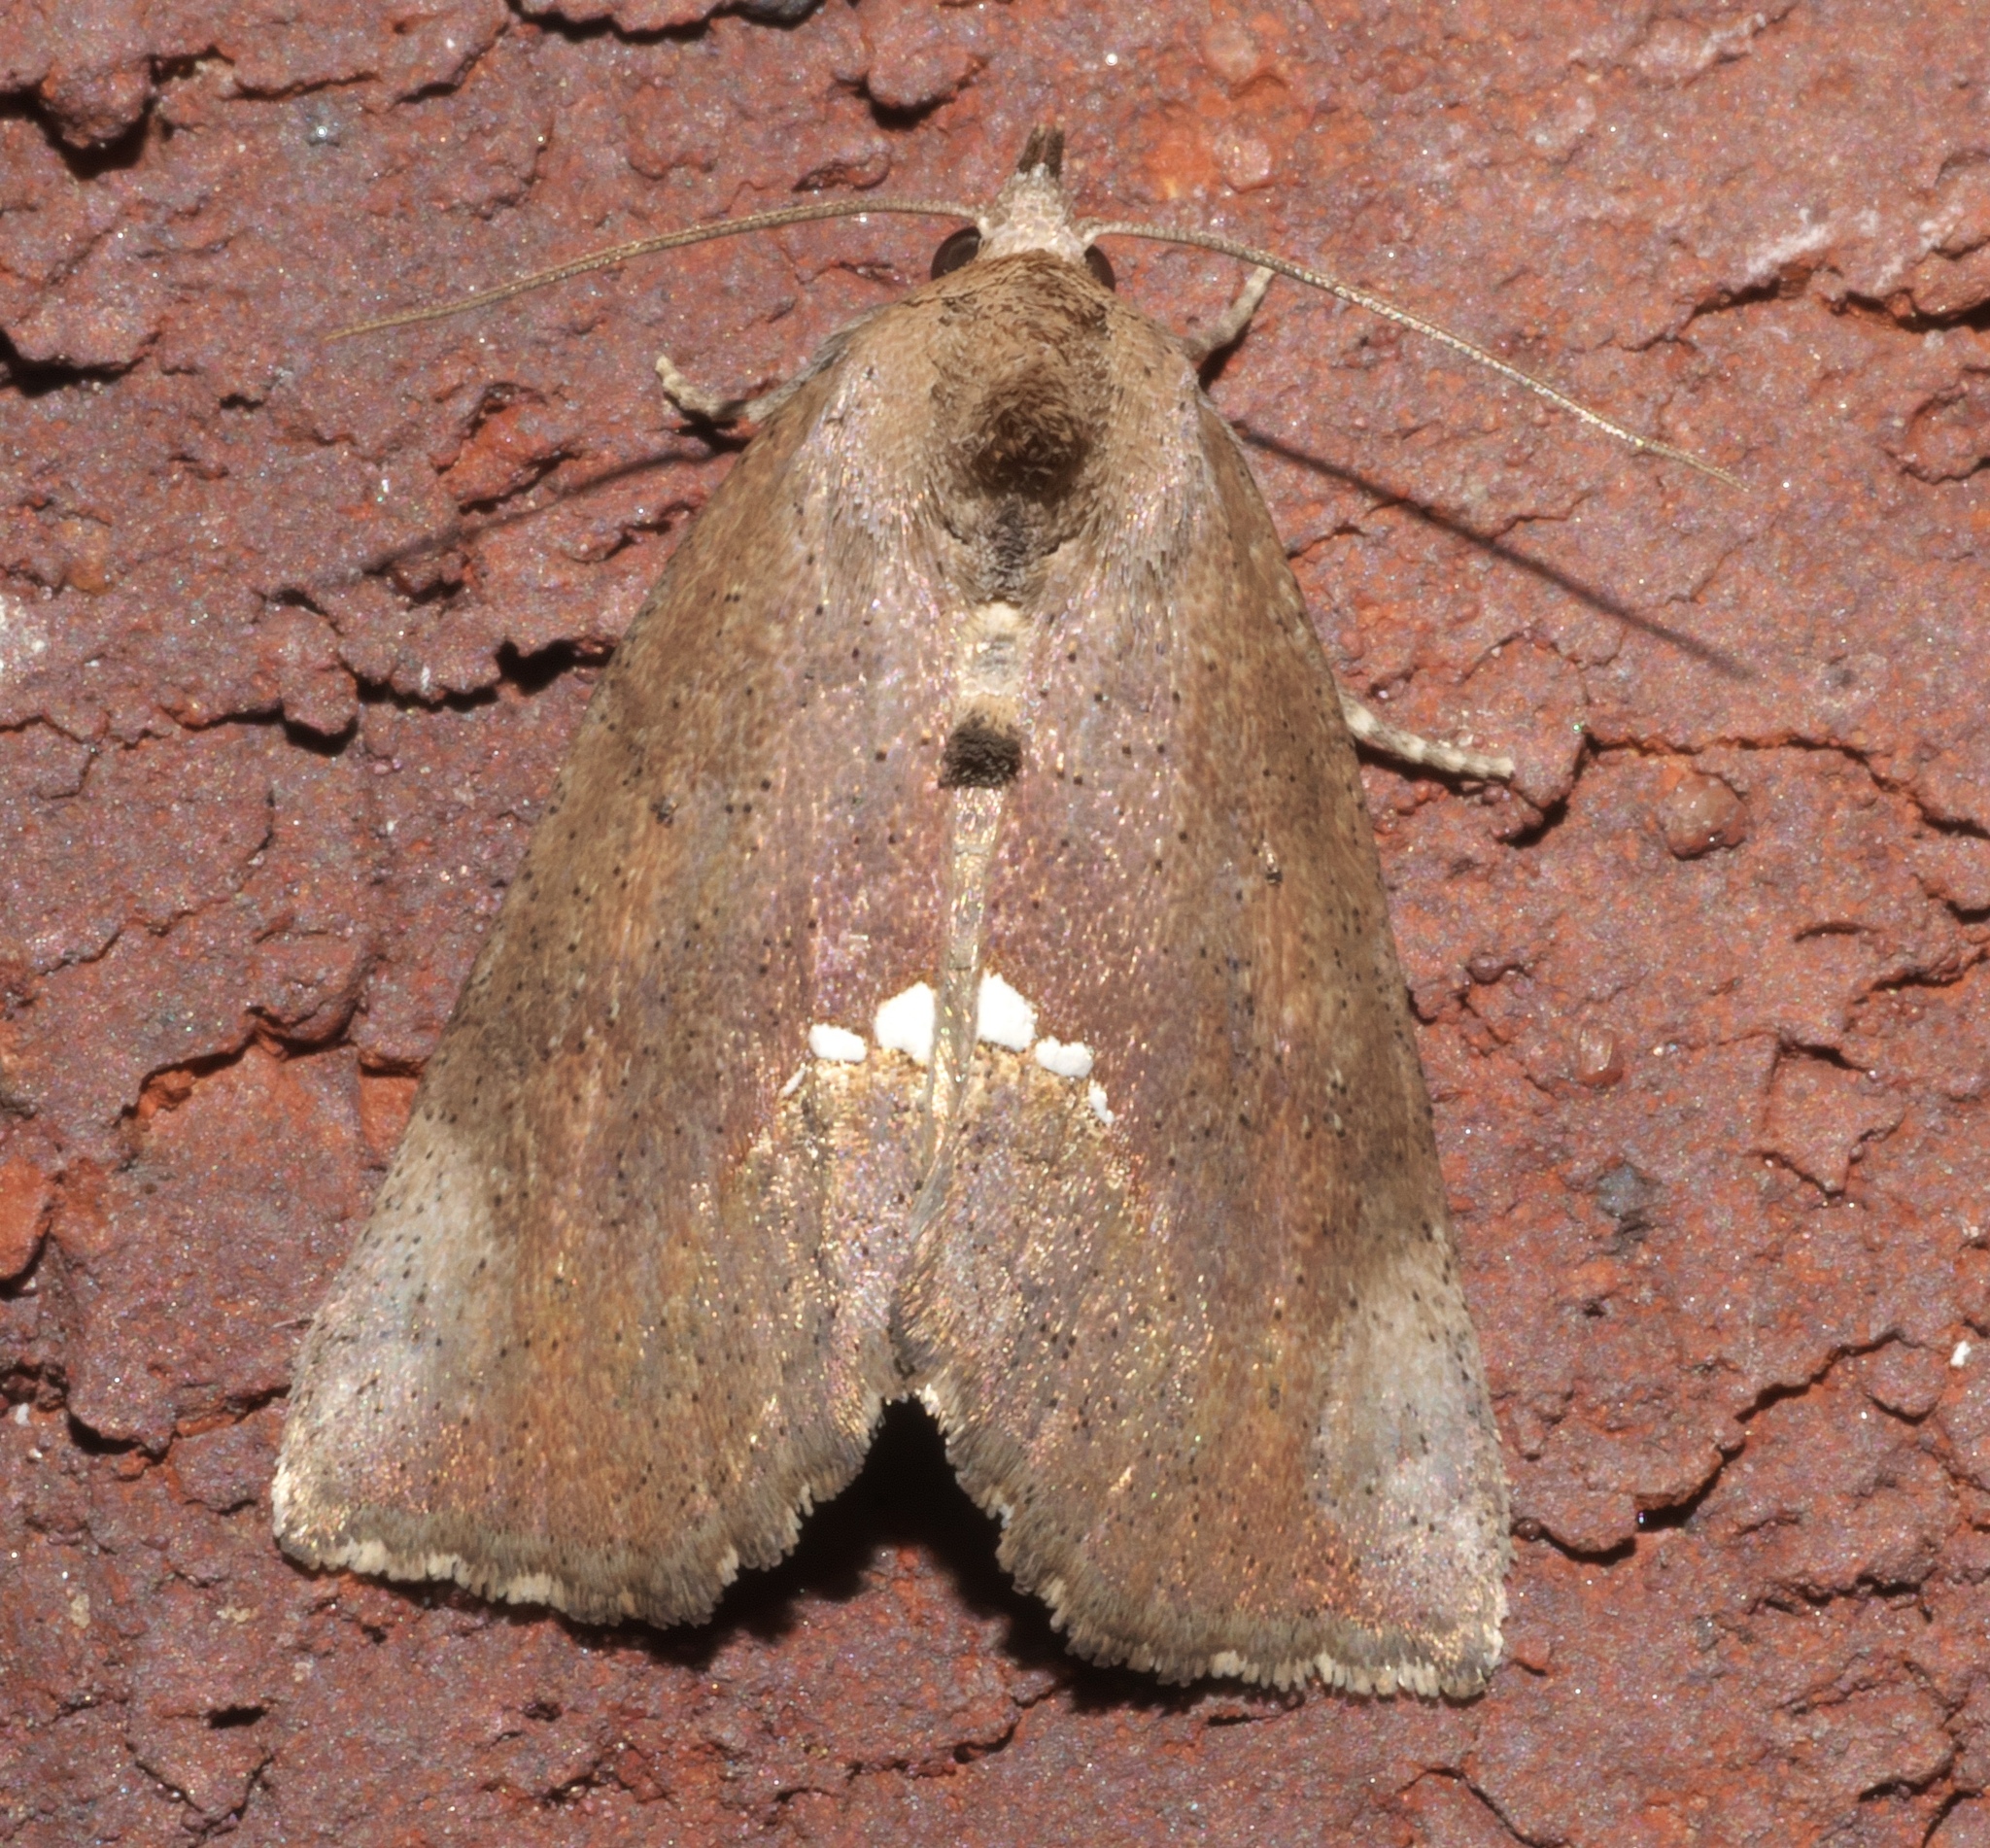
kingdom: Animalia
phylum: Arthropoda
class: Insecta
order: Lepidoptera
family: Erebidae
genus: Hypsoropha
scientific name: Hypsoropha hormos
